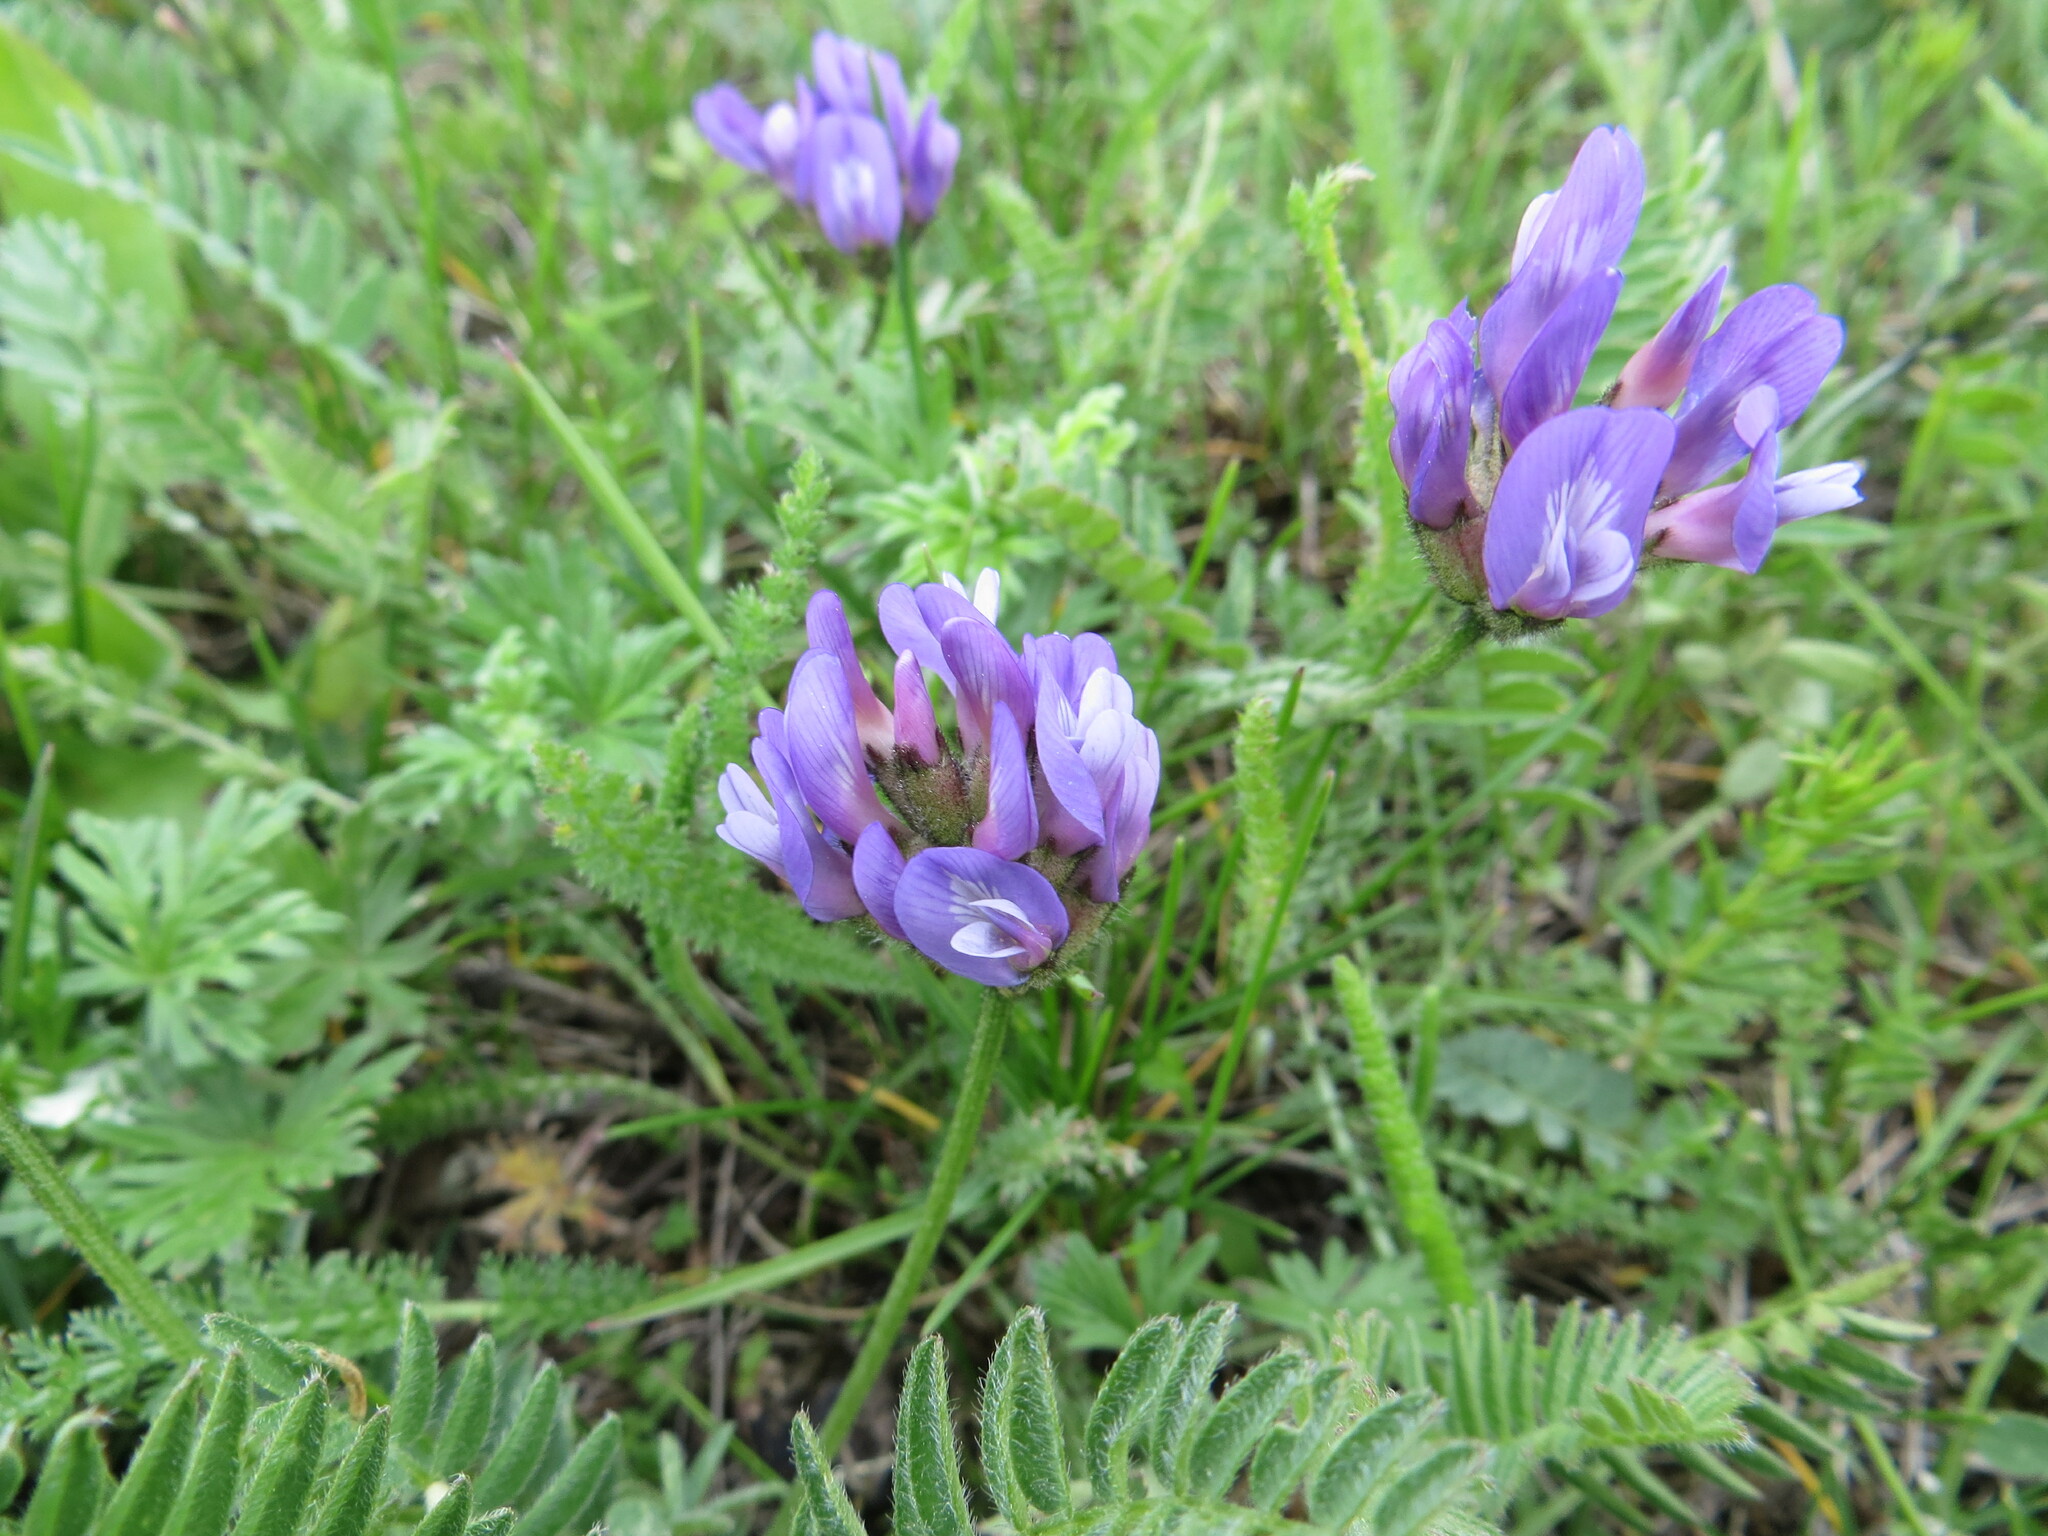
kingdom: Plantae
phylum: Tracheophyta
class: Magnoliopsida
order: Fabales
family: Fabaceae
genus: Astragalus
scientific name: Astragalus danicus
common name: Purple milk-vetch
